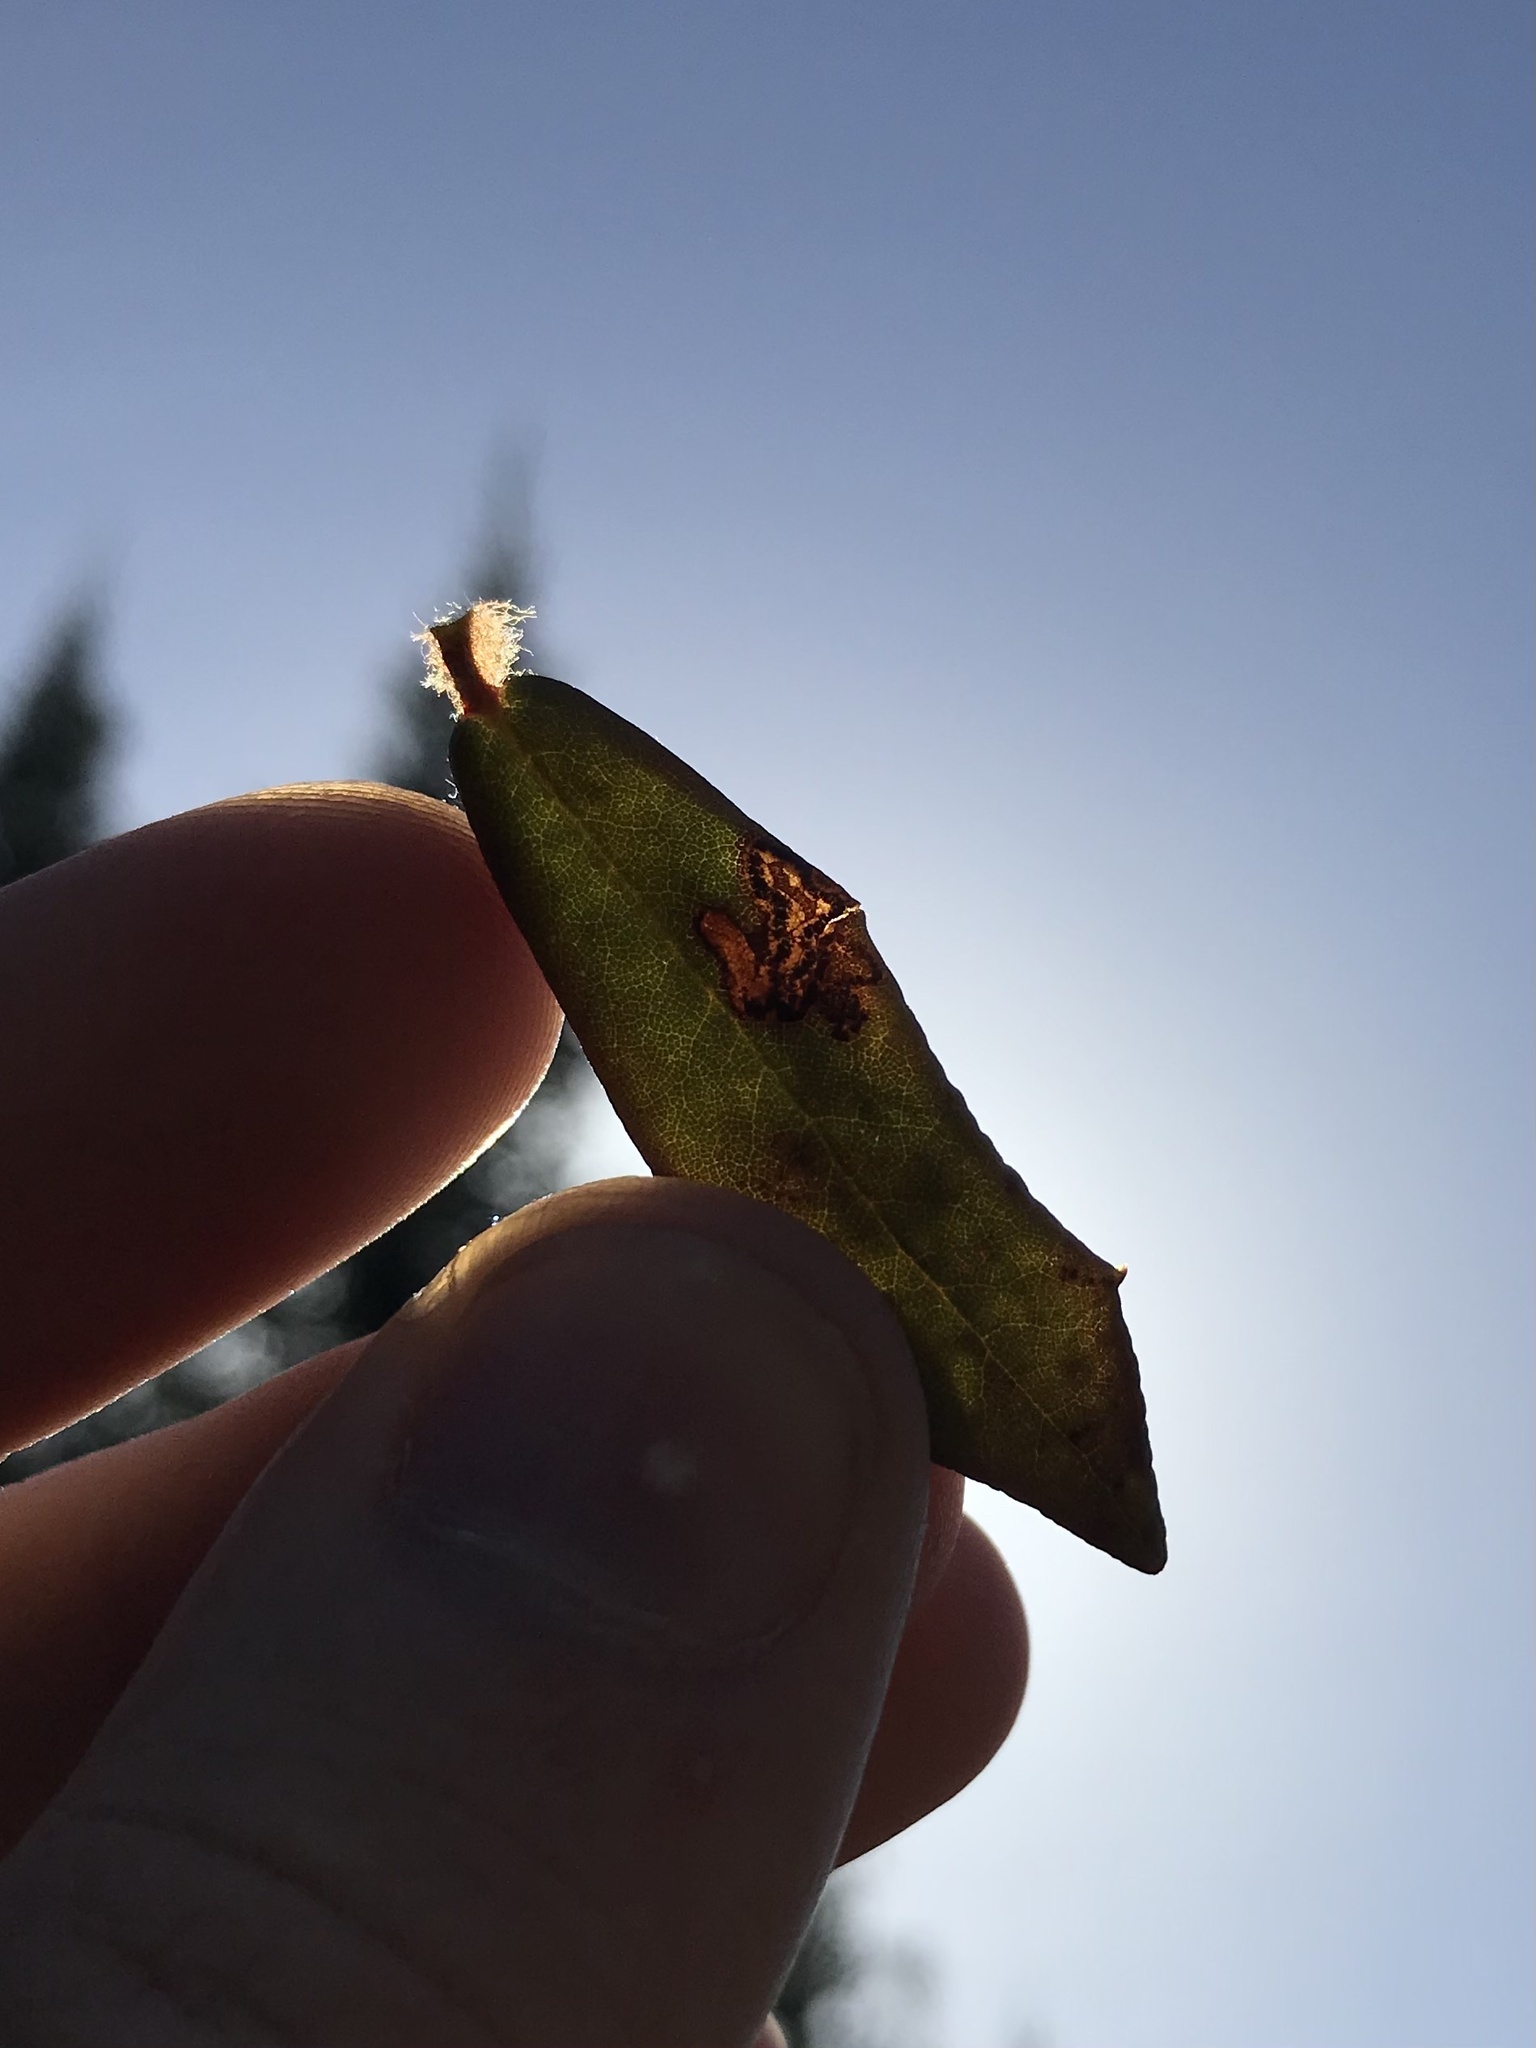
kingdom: Animalia
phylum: Arthropoda
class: Insecta
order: Lepidoptera
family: Nepticulidae
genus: Stigmella
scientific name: Stigmella corylifoliella
